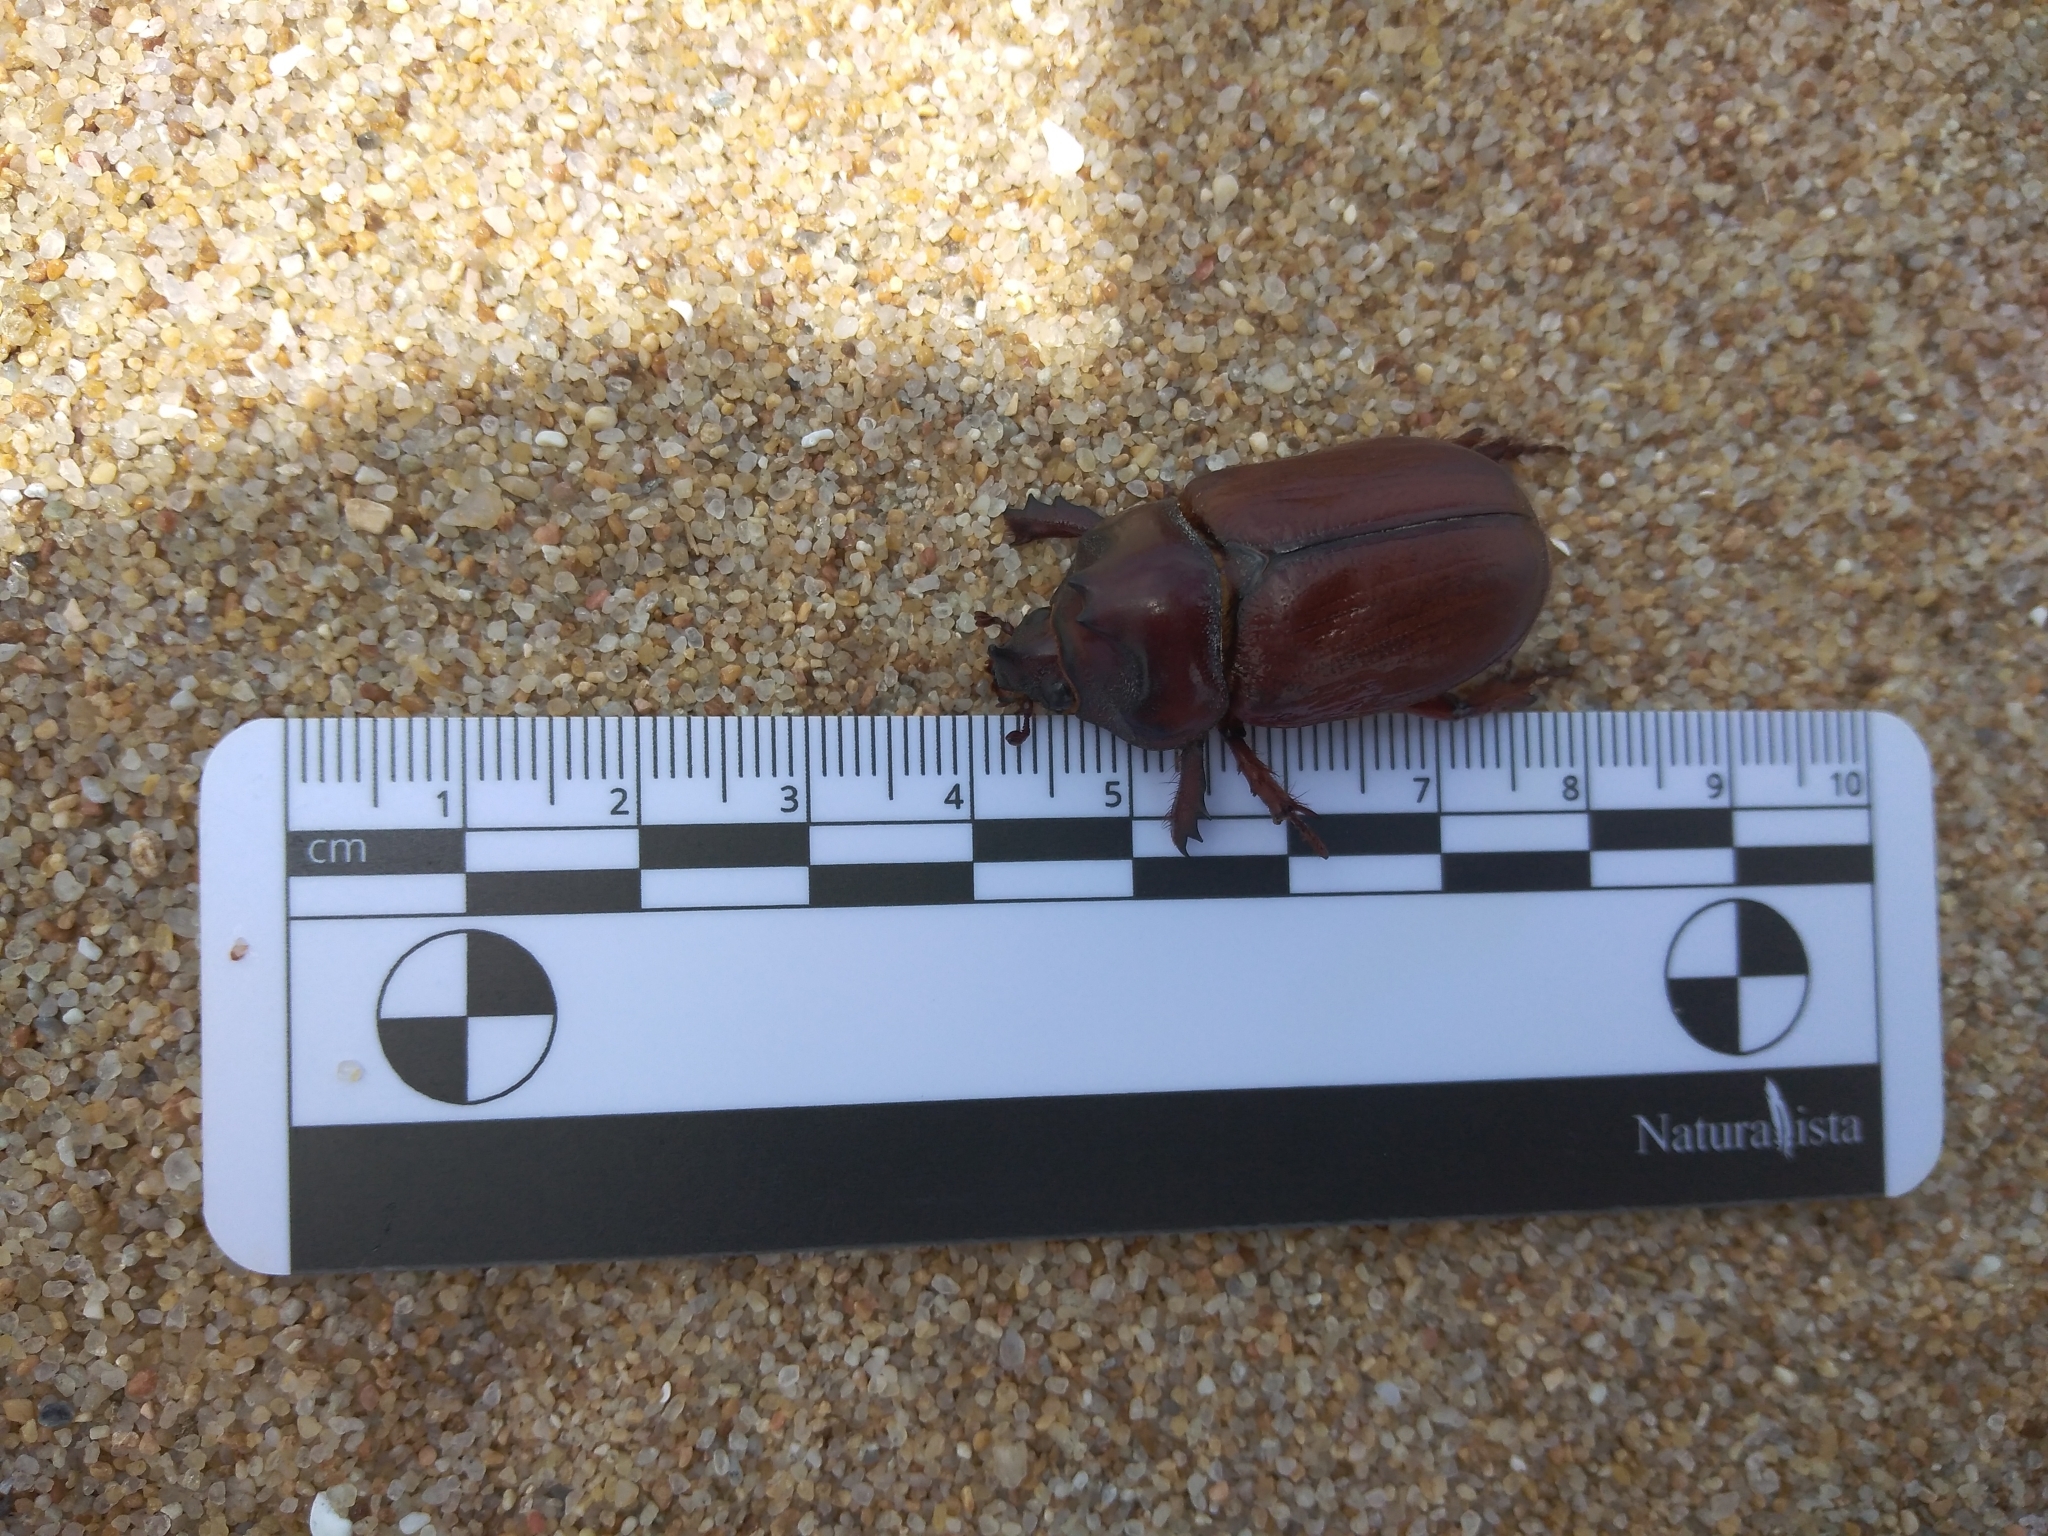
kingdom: Animalia
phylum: Arthropoda
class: Insecta
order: Coleoptera
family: Scarabaeidae
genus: Thronistes
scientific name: Thronistes rouxi
